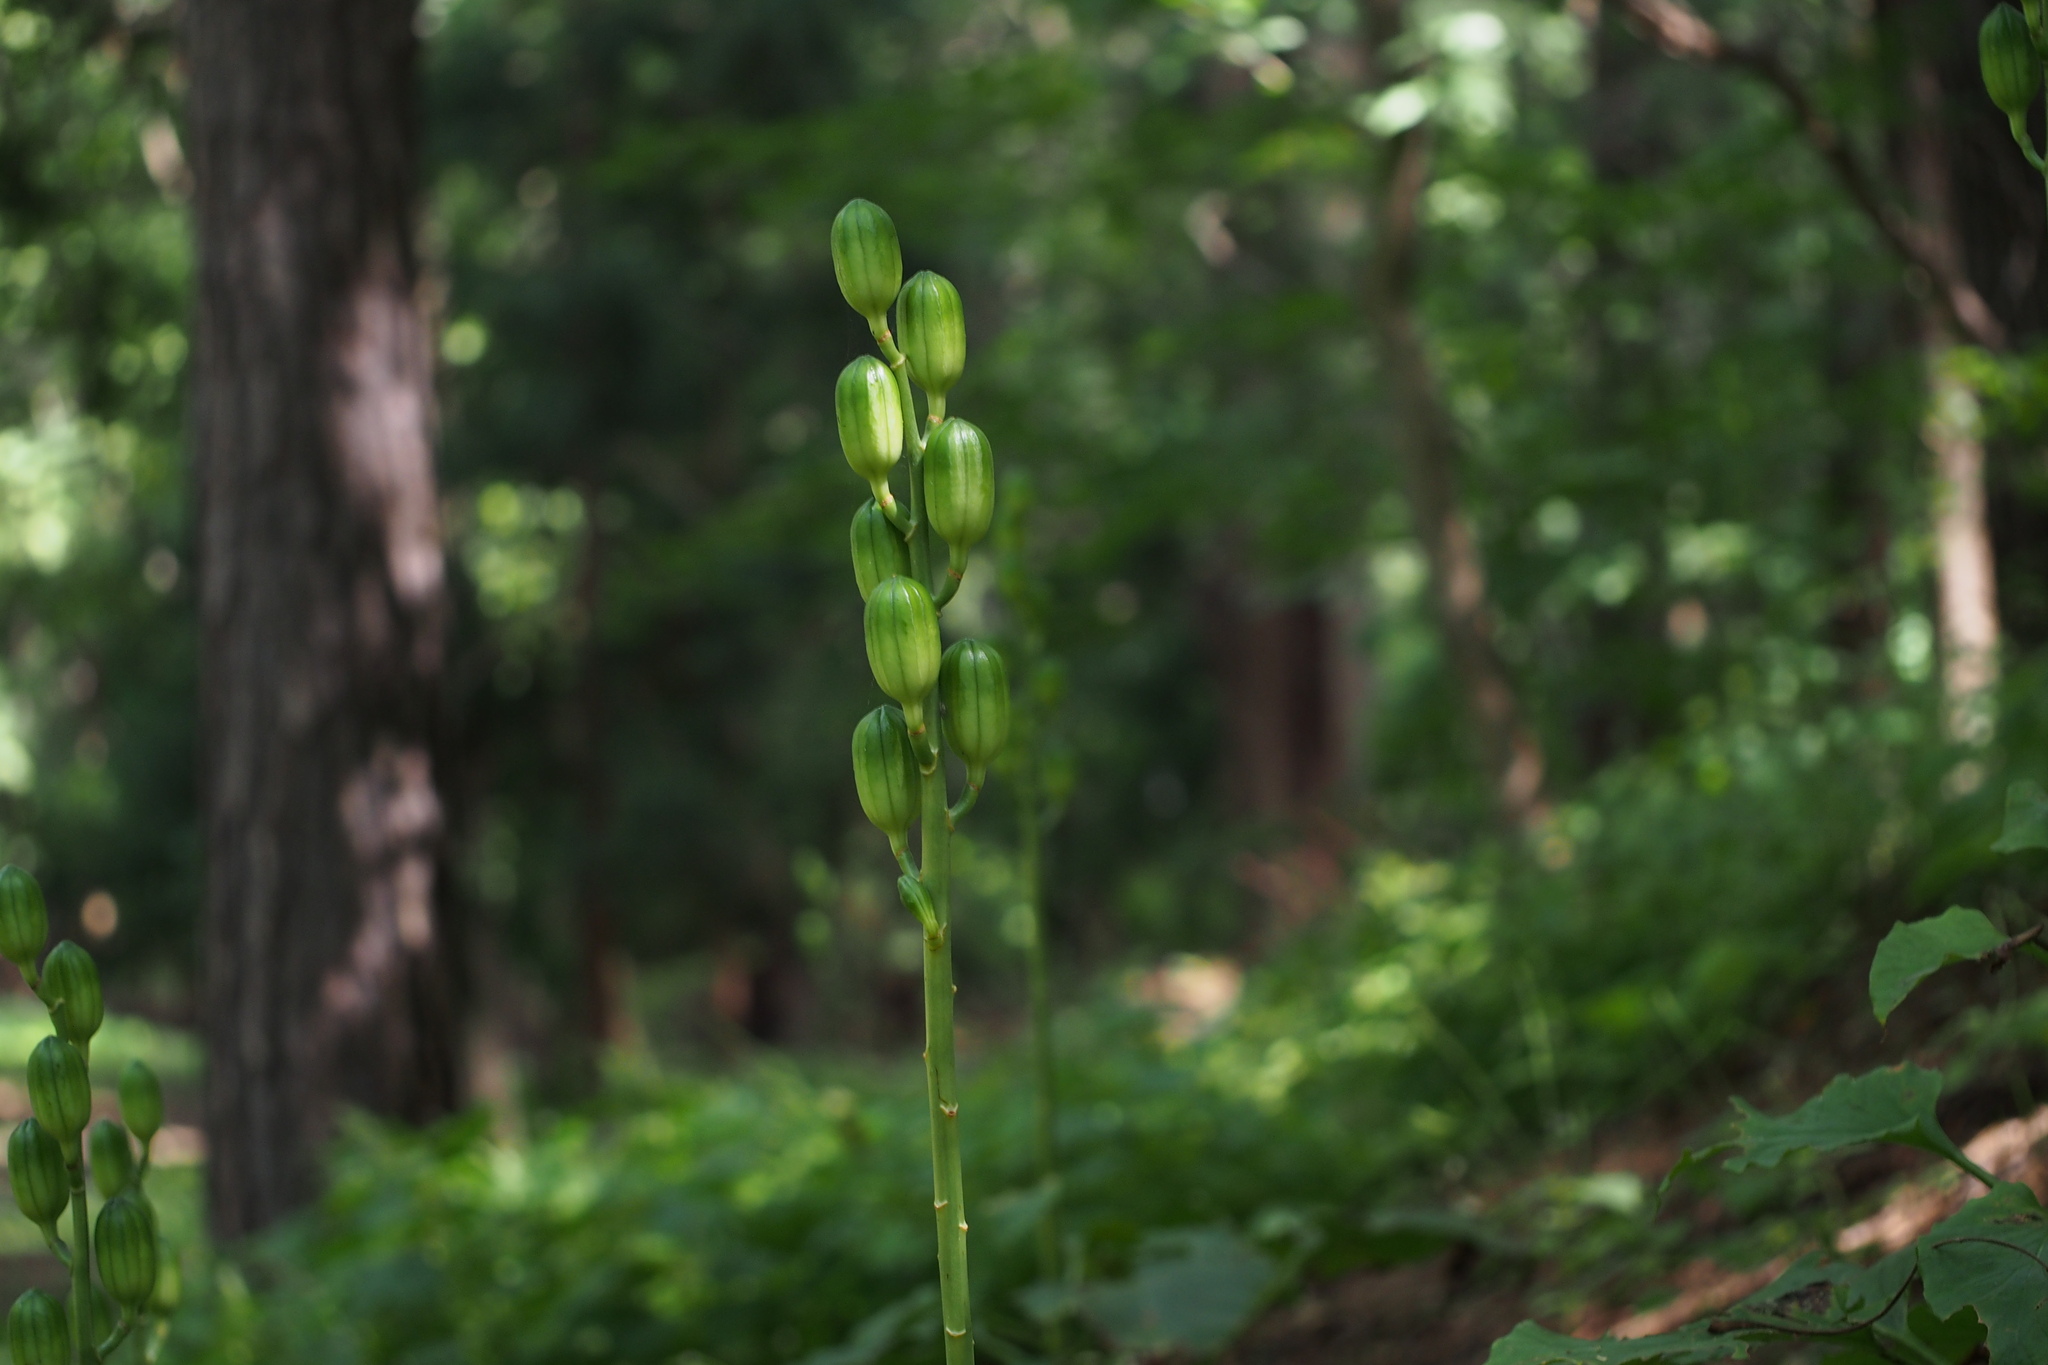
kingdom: Plantae
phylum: Tracheophyta
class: Liliopsida
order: Liliales
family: Liliaceae
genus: Cardiocrinum
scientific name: Cardiocrinum cordatum
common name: Lily
